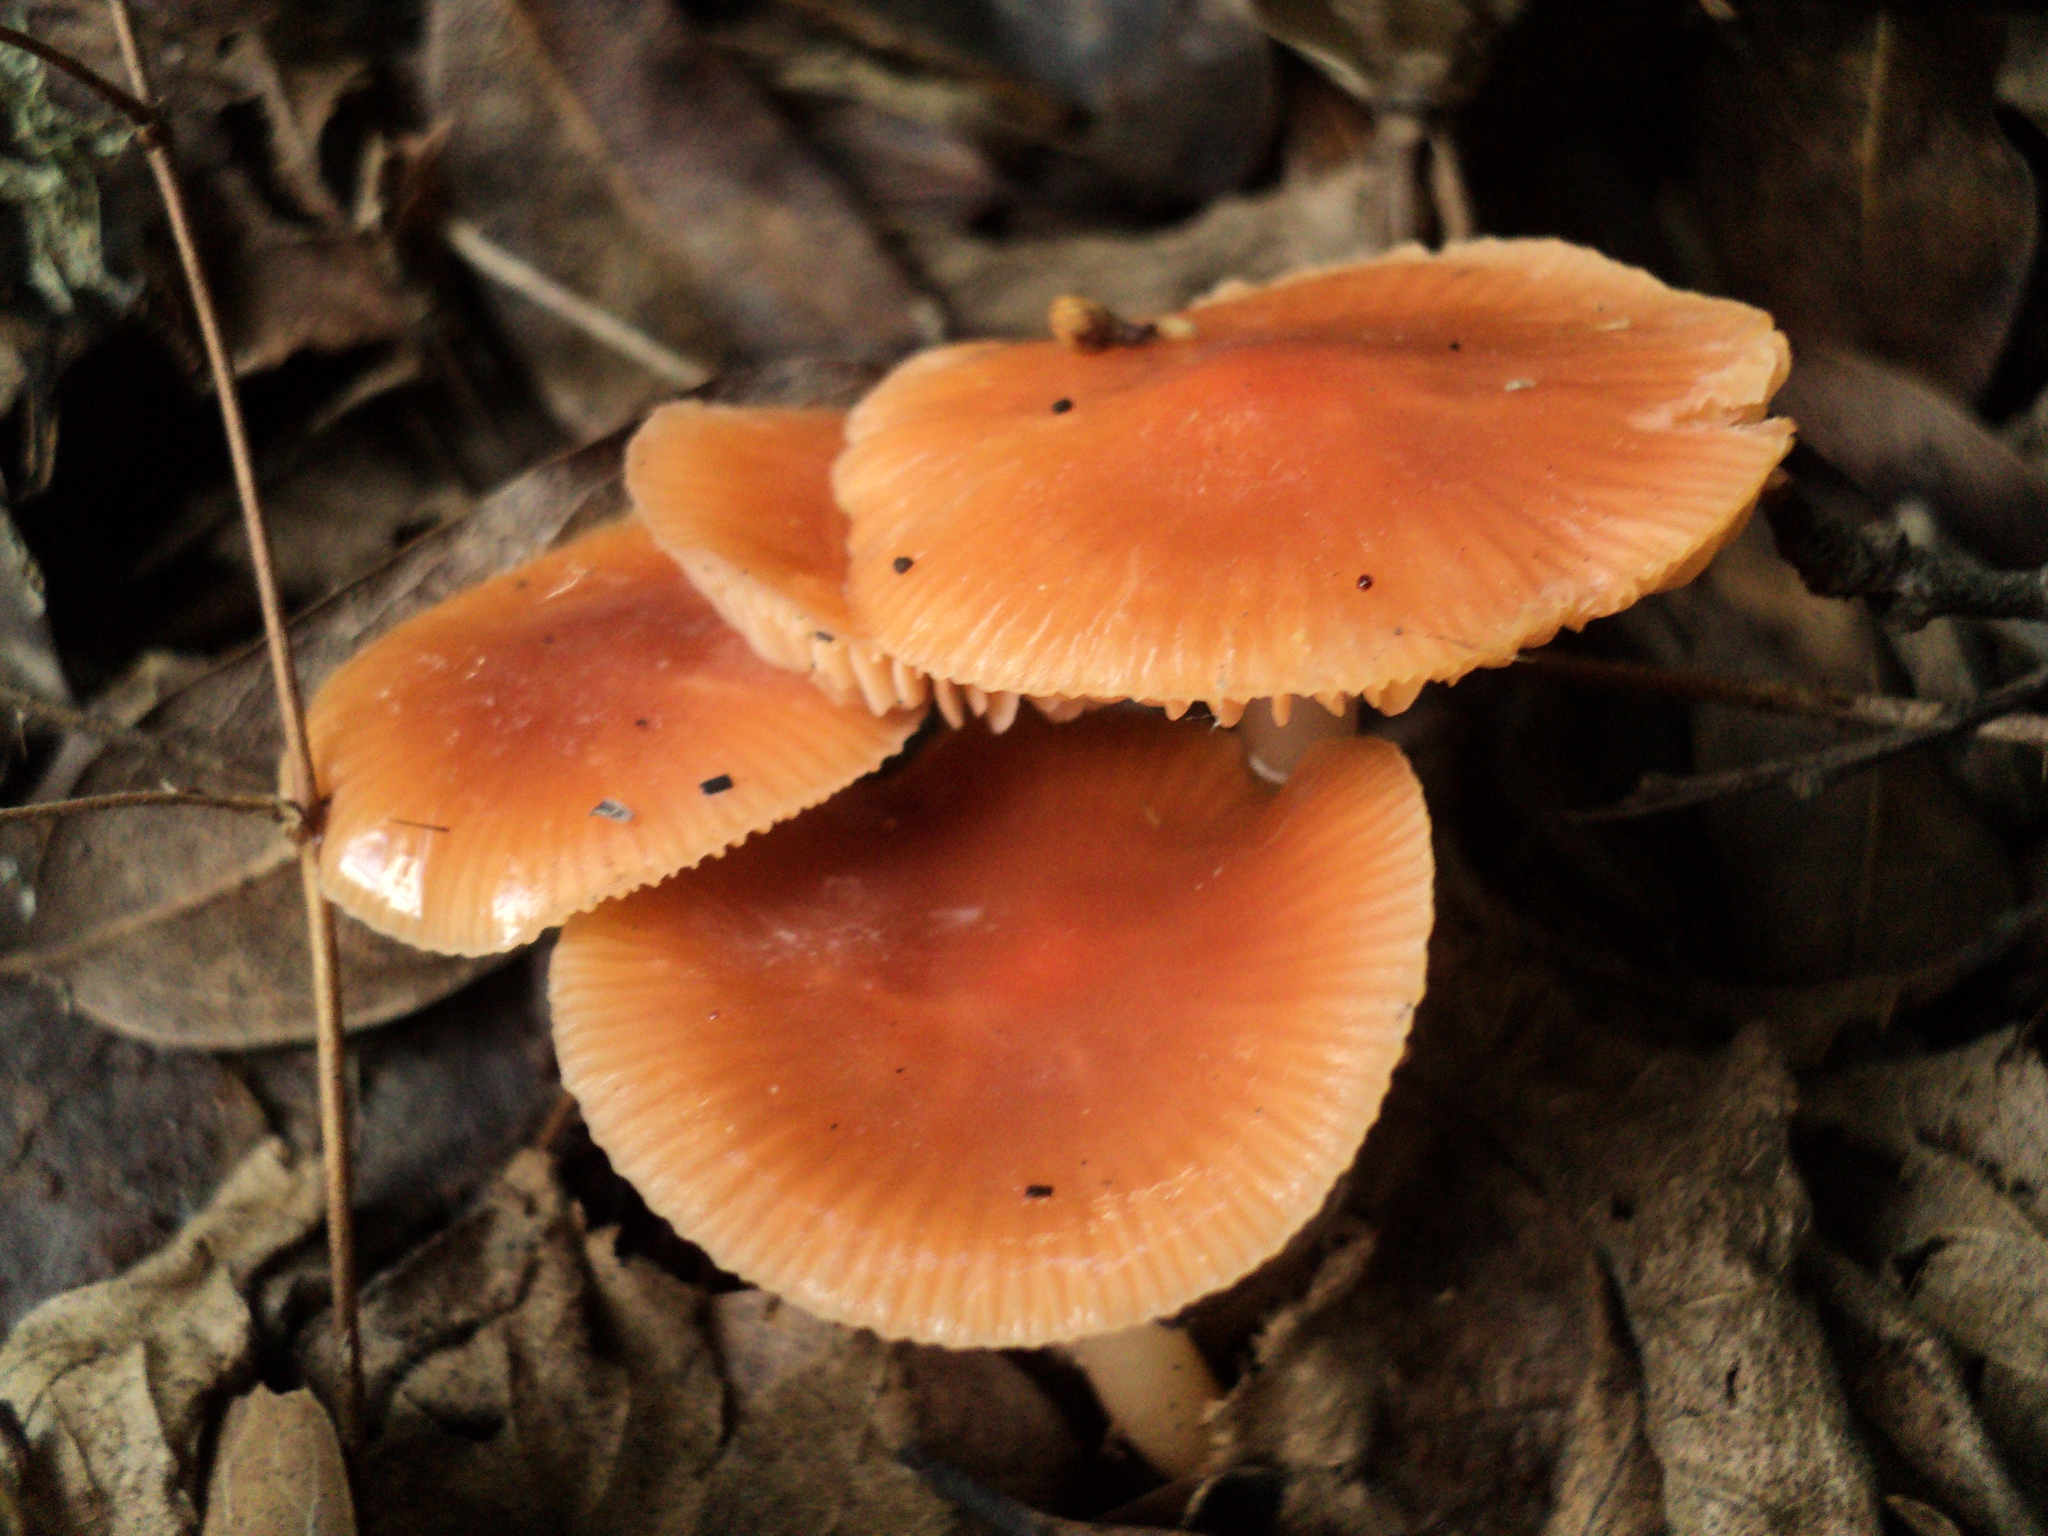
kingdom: Fungi
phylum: Basidiomycota
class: Agaricomycetes
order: Agaricales
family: Hygrophoraceae
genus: Gliophorus
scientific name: Gliophorus psittacinus
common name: Parrot wax-cap
